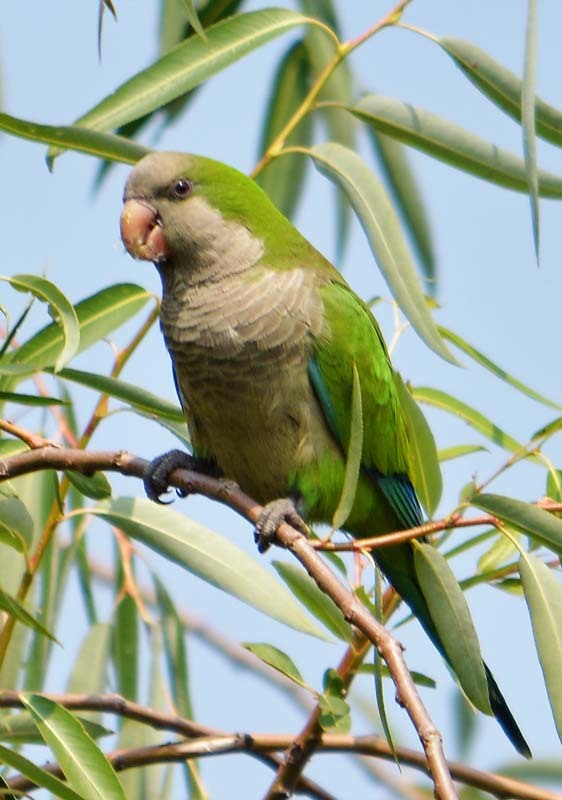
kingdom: Animalia
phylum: Chordata
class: Aves
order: Psittaciformes
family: Psittacidae
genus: Myiopsitta
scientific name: Myiopsitta monachus
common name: Monk parakeet
